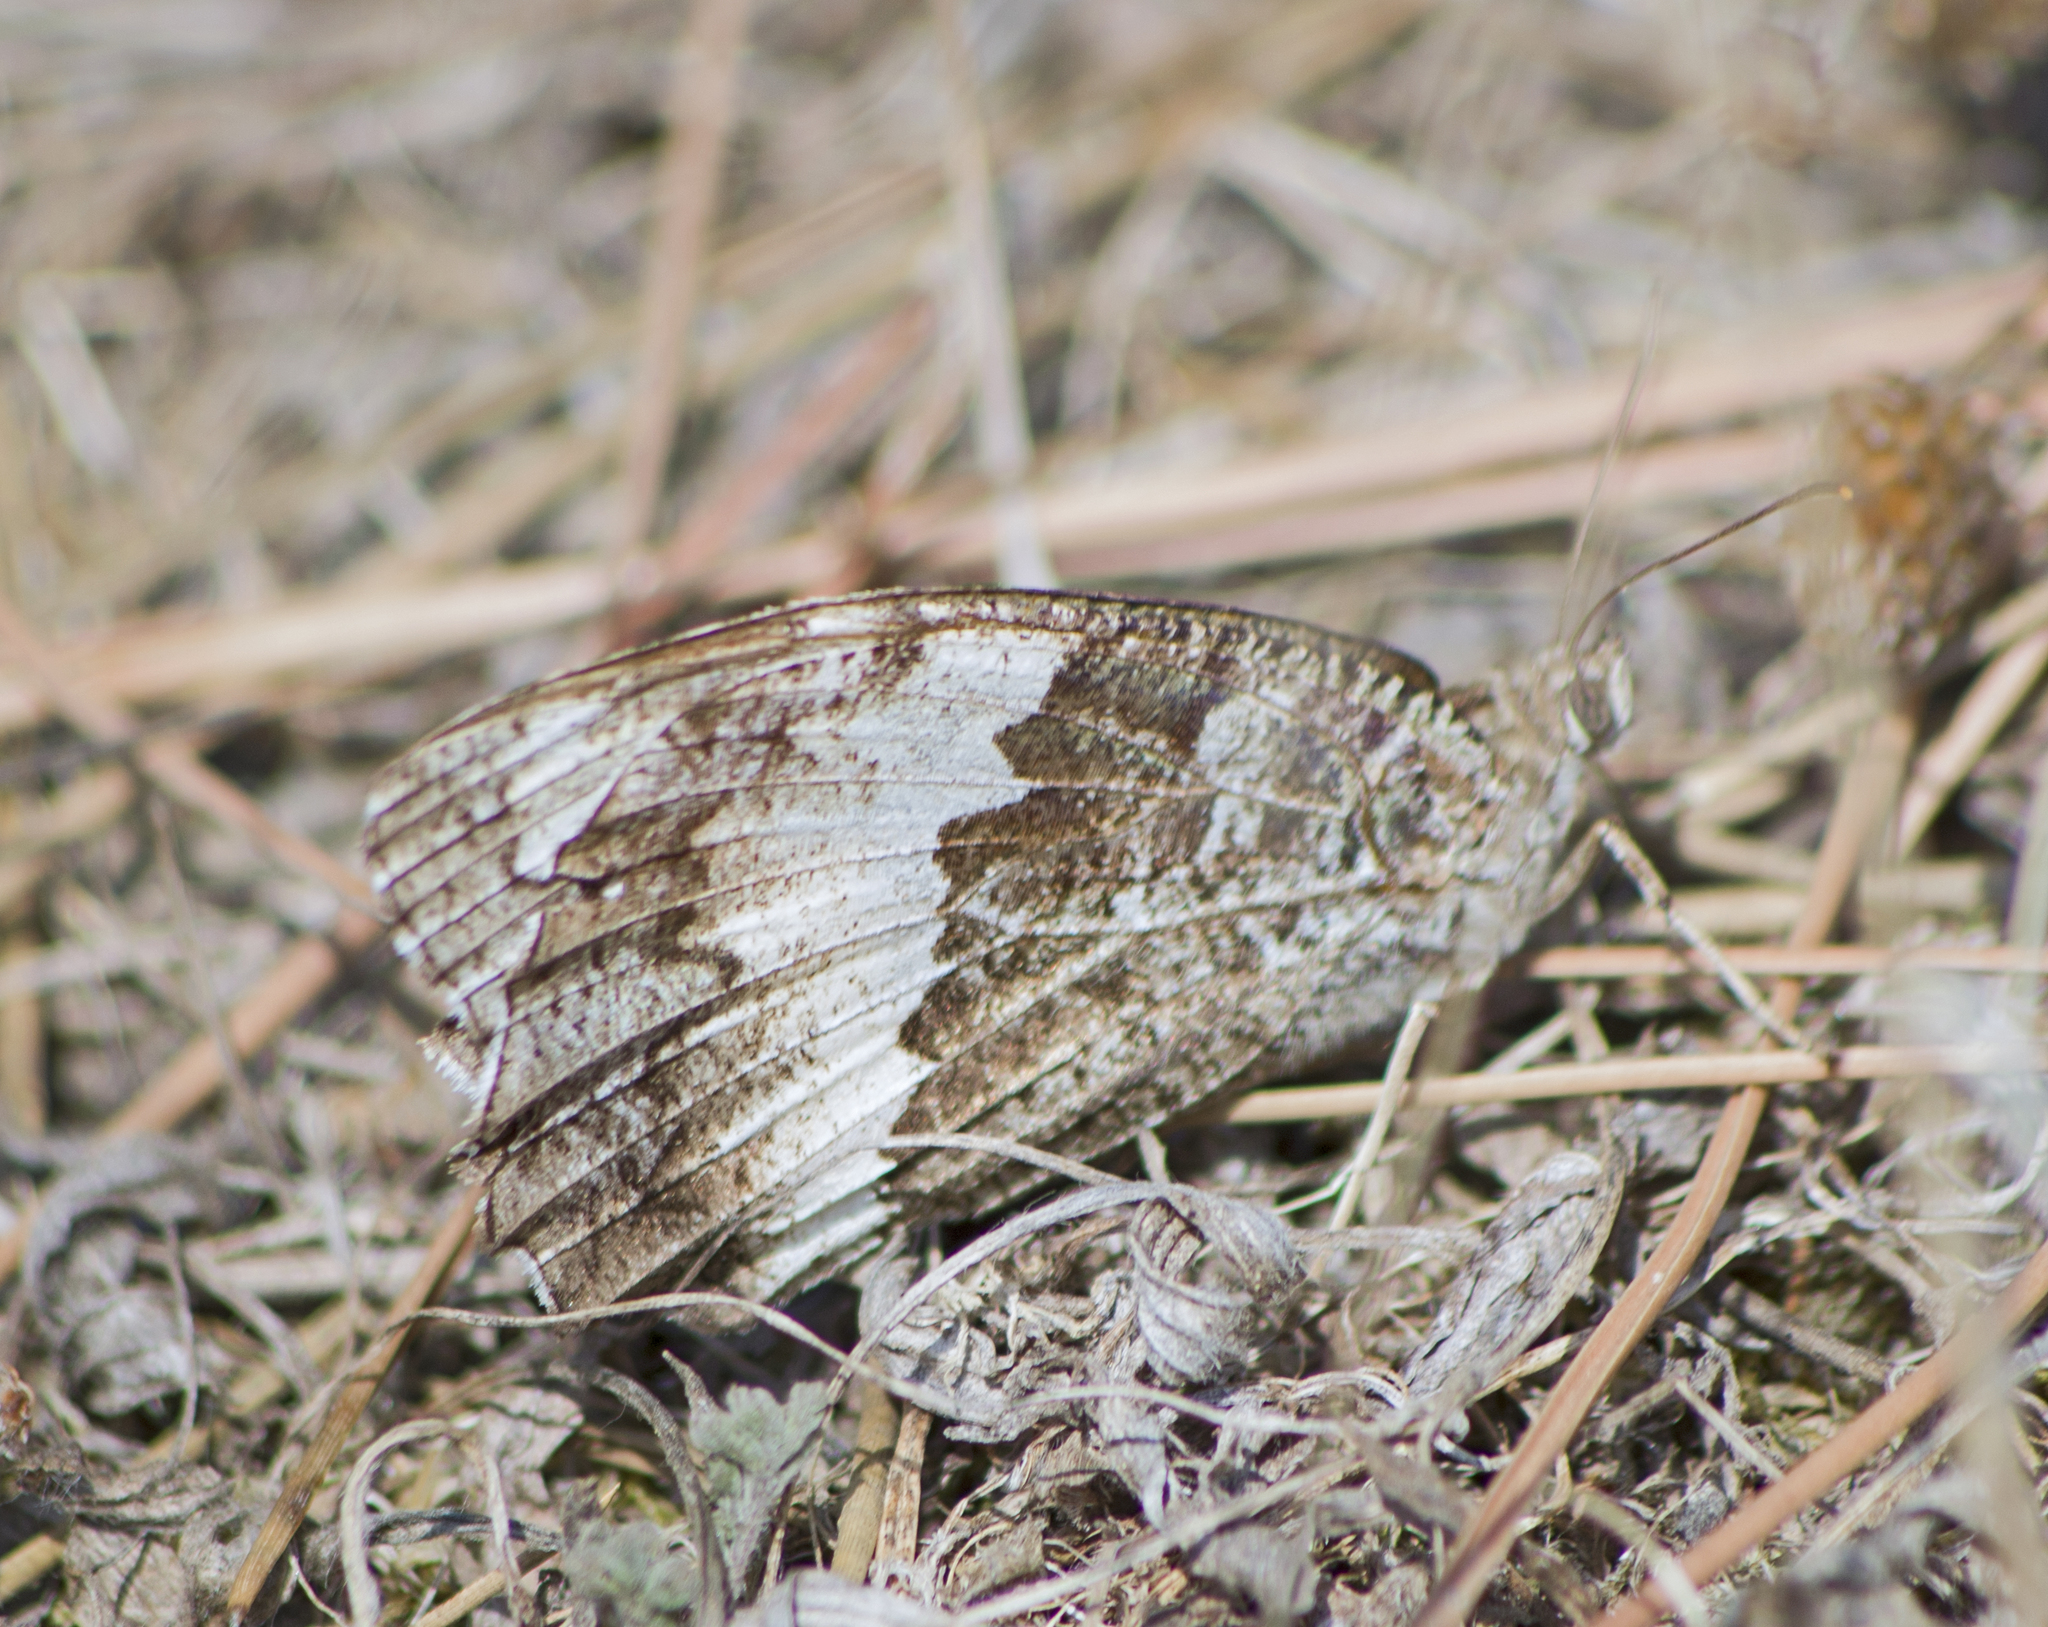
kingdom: Animalia
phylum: Arthropoda
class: Insecta
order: Lepidoptera
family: Lycaenidae
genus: Loweia
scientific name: Loweia tityrus
